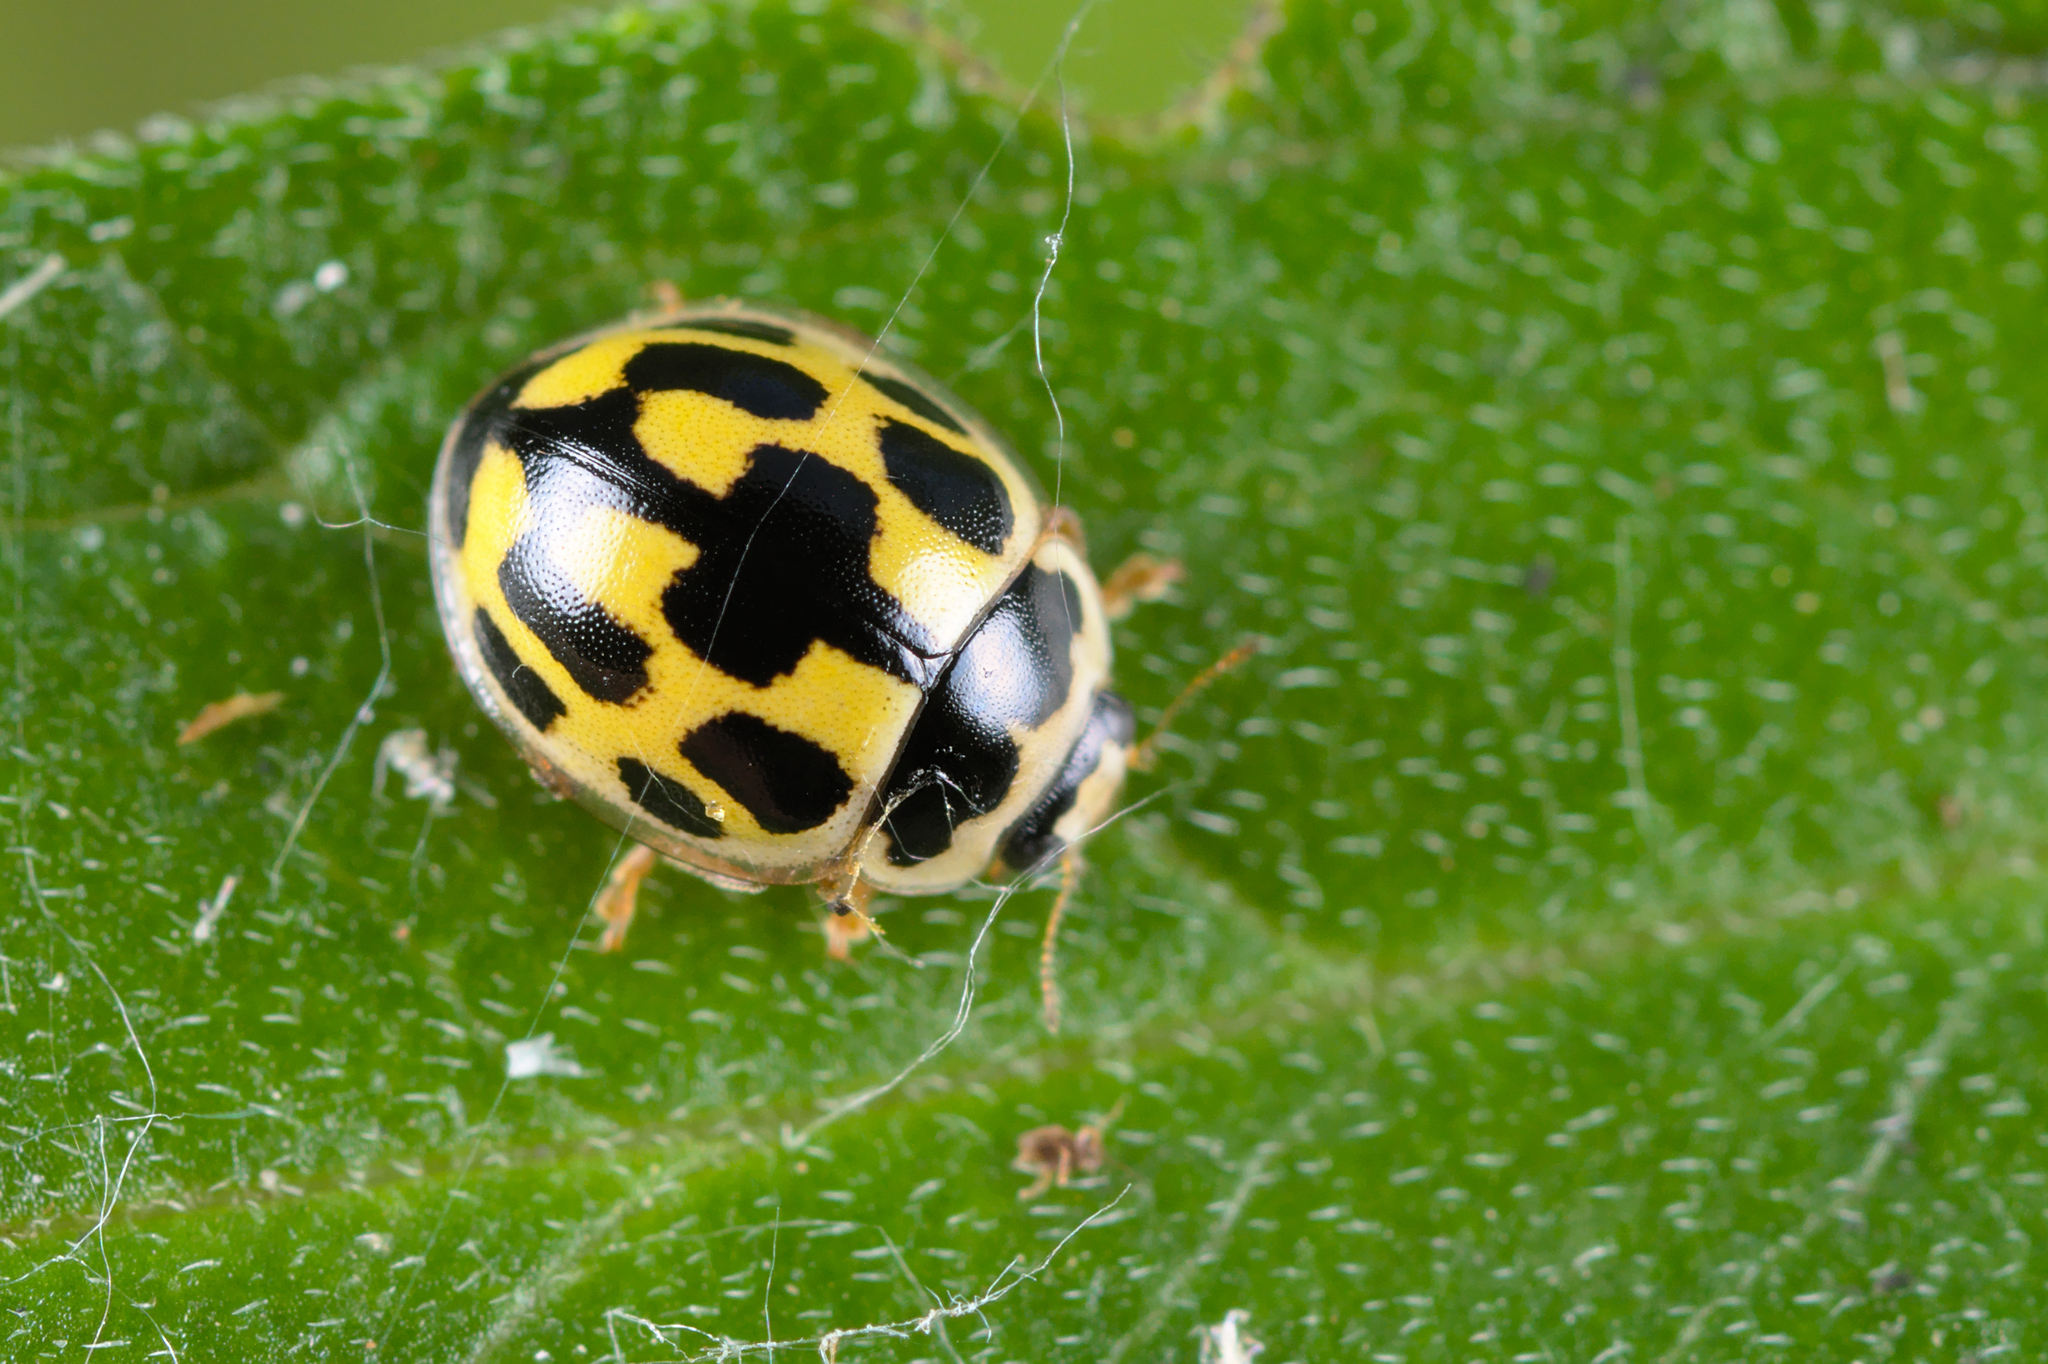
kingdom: Animalia
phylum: Arthropoda
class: Insecta
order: Coleoptera
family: Coccinellidae
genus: Propylaea
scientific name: Propylaea quatuordecimpunctata
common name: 14-spotted ladybird beetle
